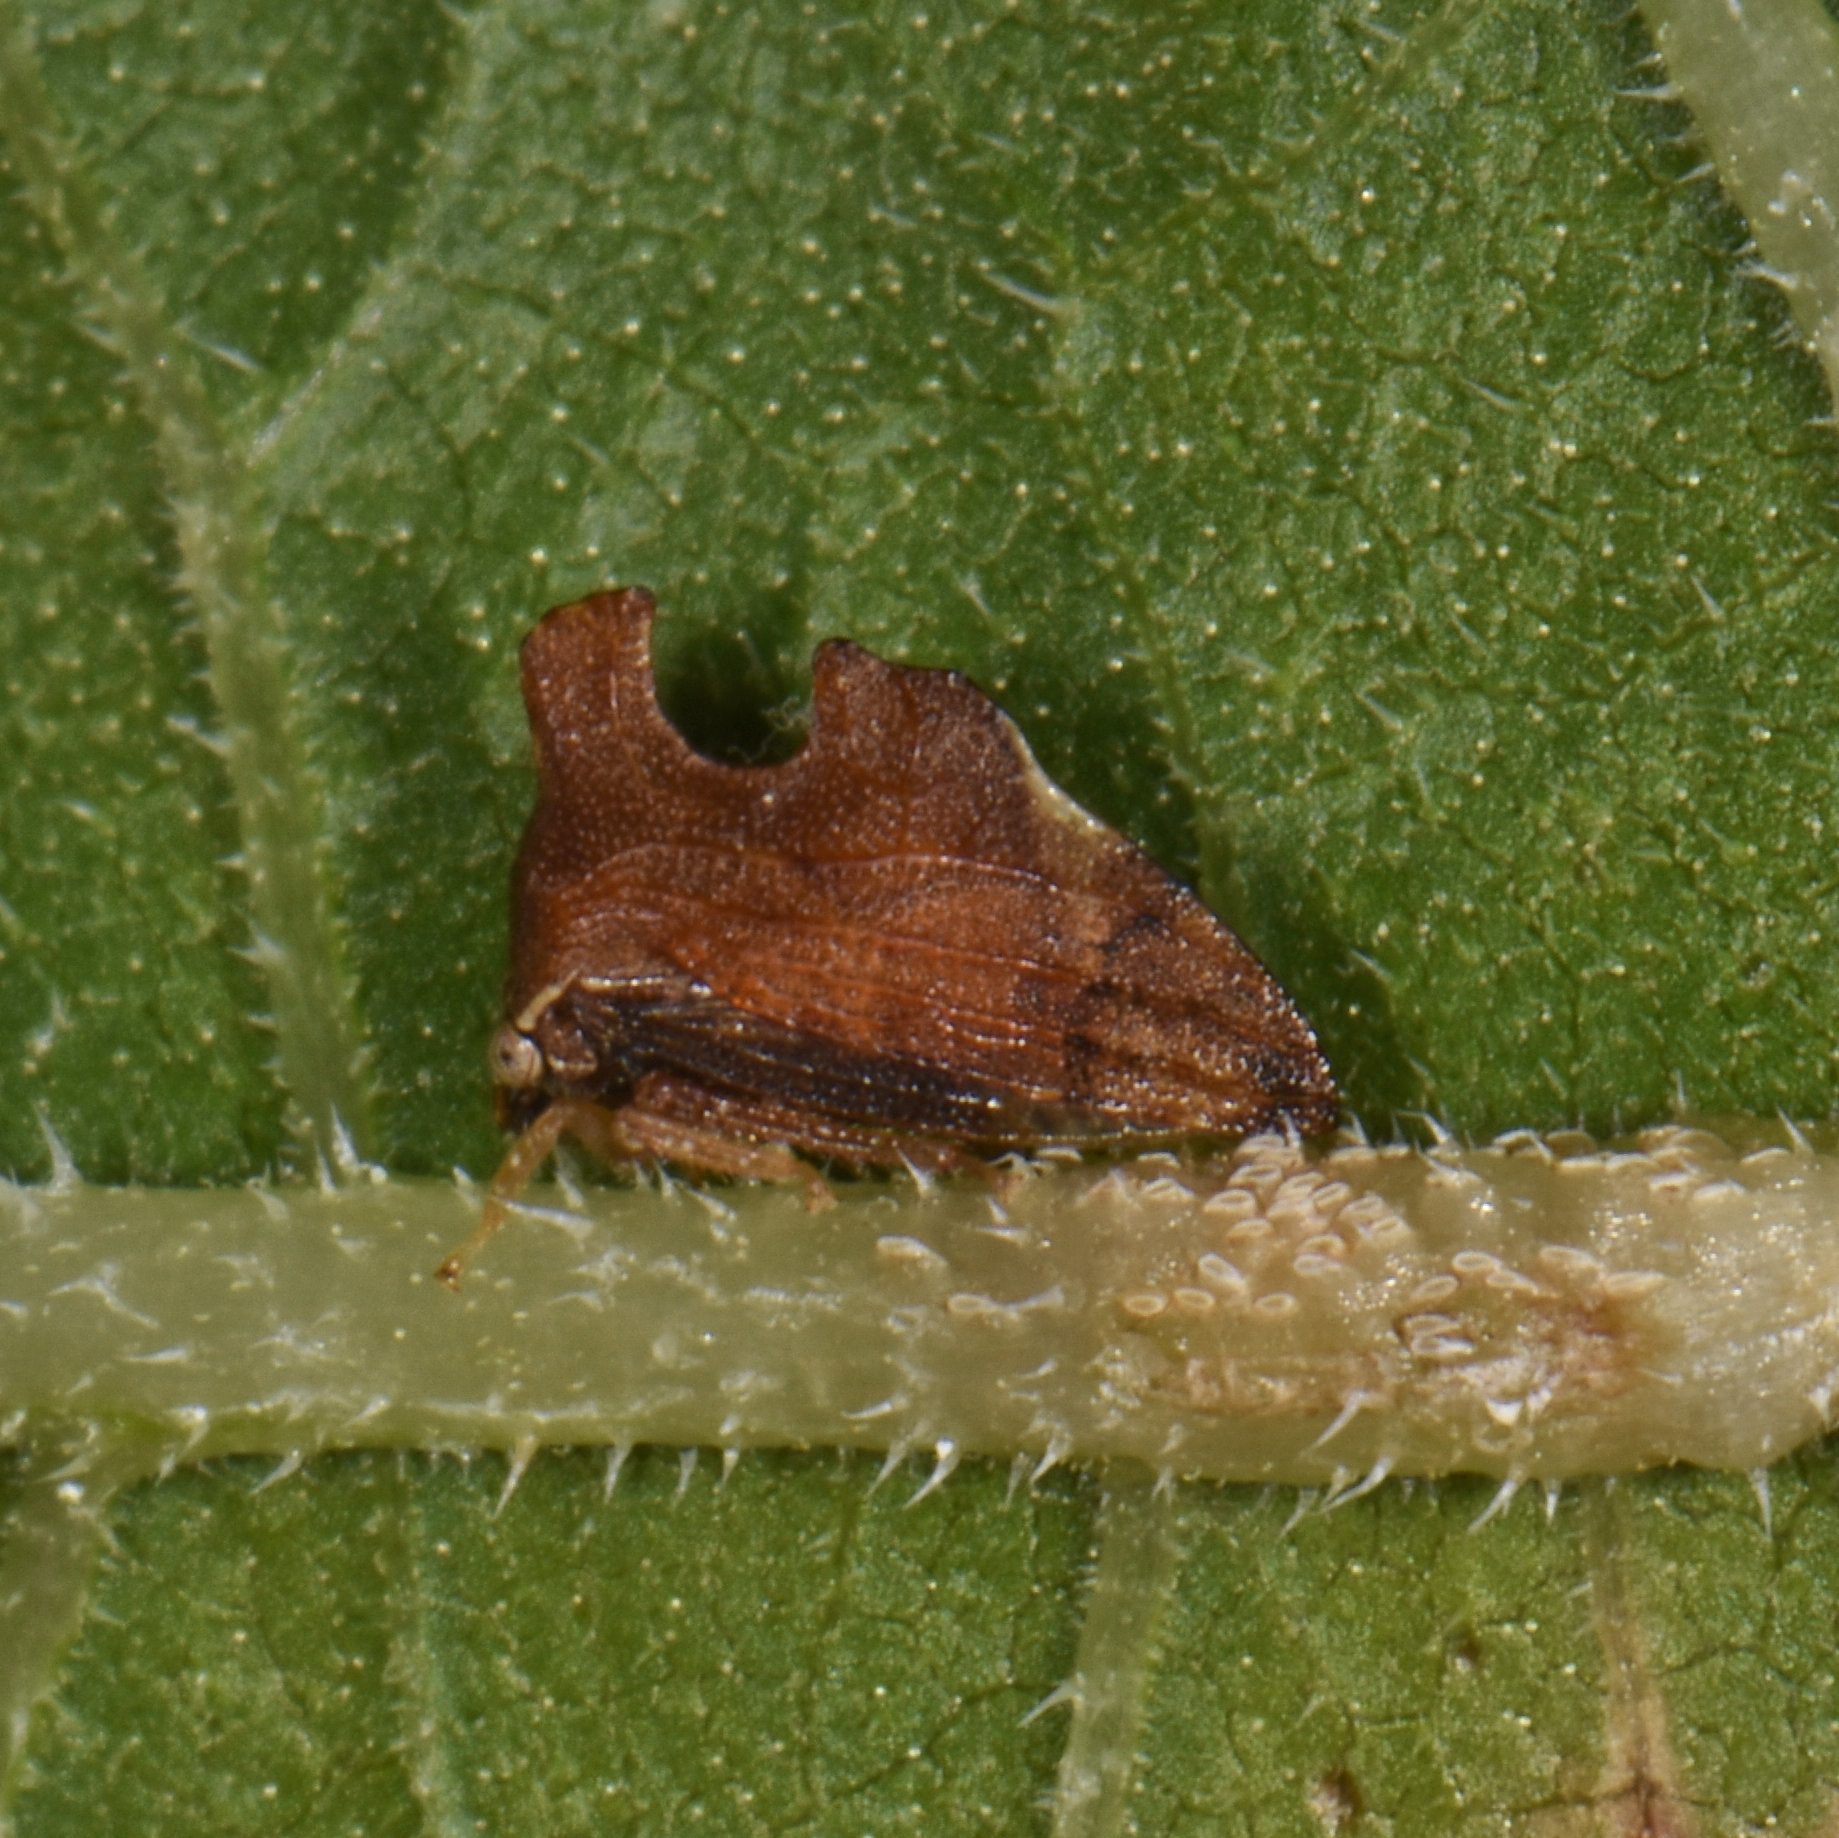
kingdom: Animalia
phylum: Arthropoda
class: Insecta
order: Hemiptera
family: Membracidae
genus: Entylia
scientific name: Entylia carinata
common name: Keeled treehopper
